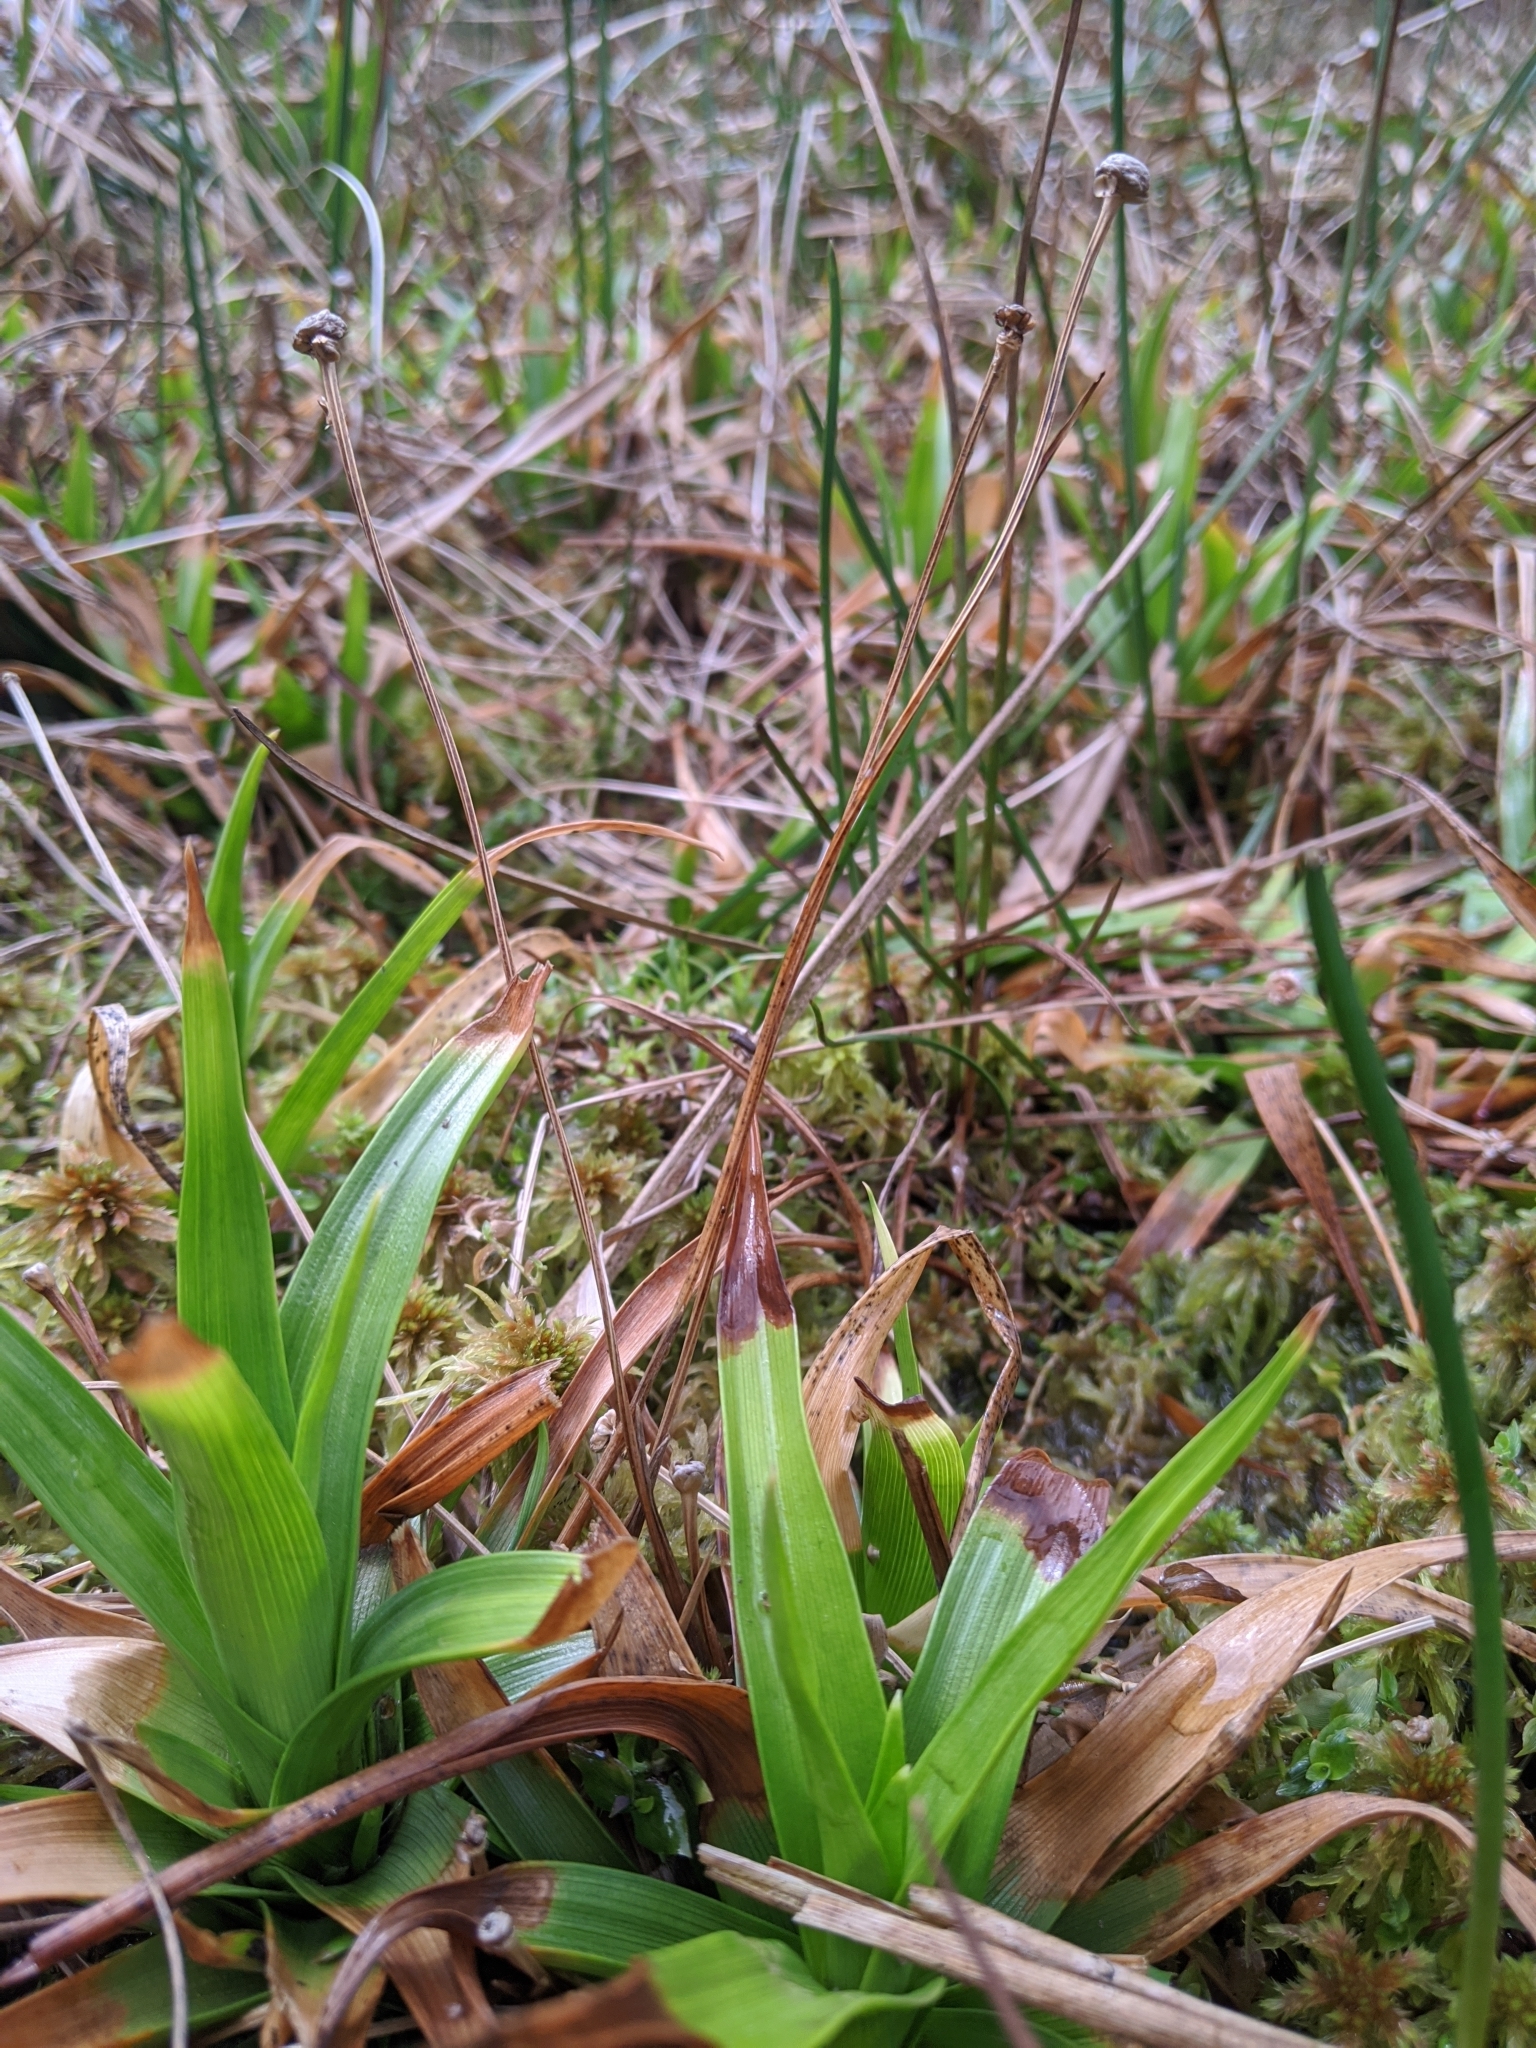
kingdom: Plantae
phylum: Tracheophyta
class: Liliopsida
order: Poales
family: Eriocaulaceae
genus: Eriocaulon
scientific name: Eriocaulon sexangulare
